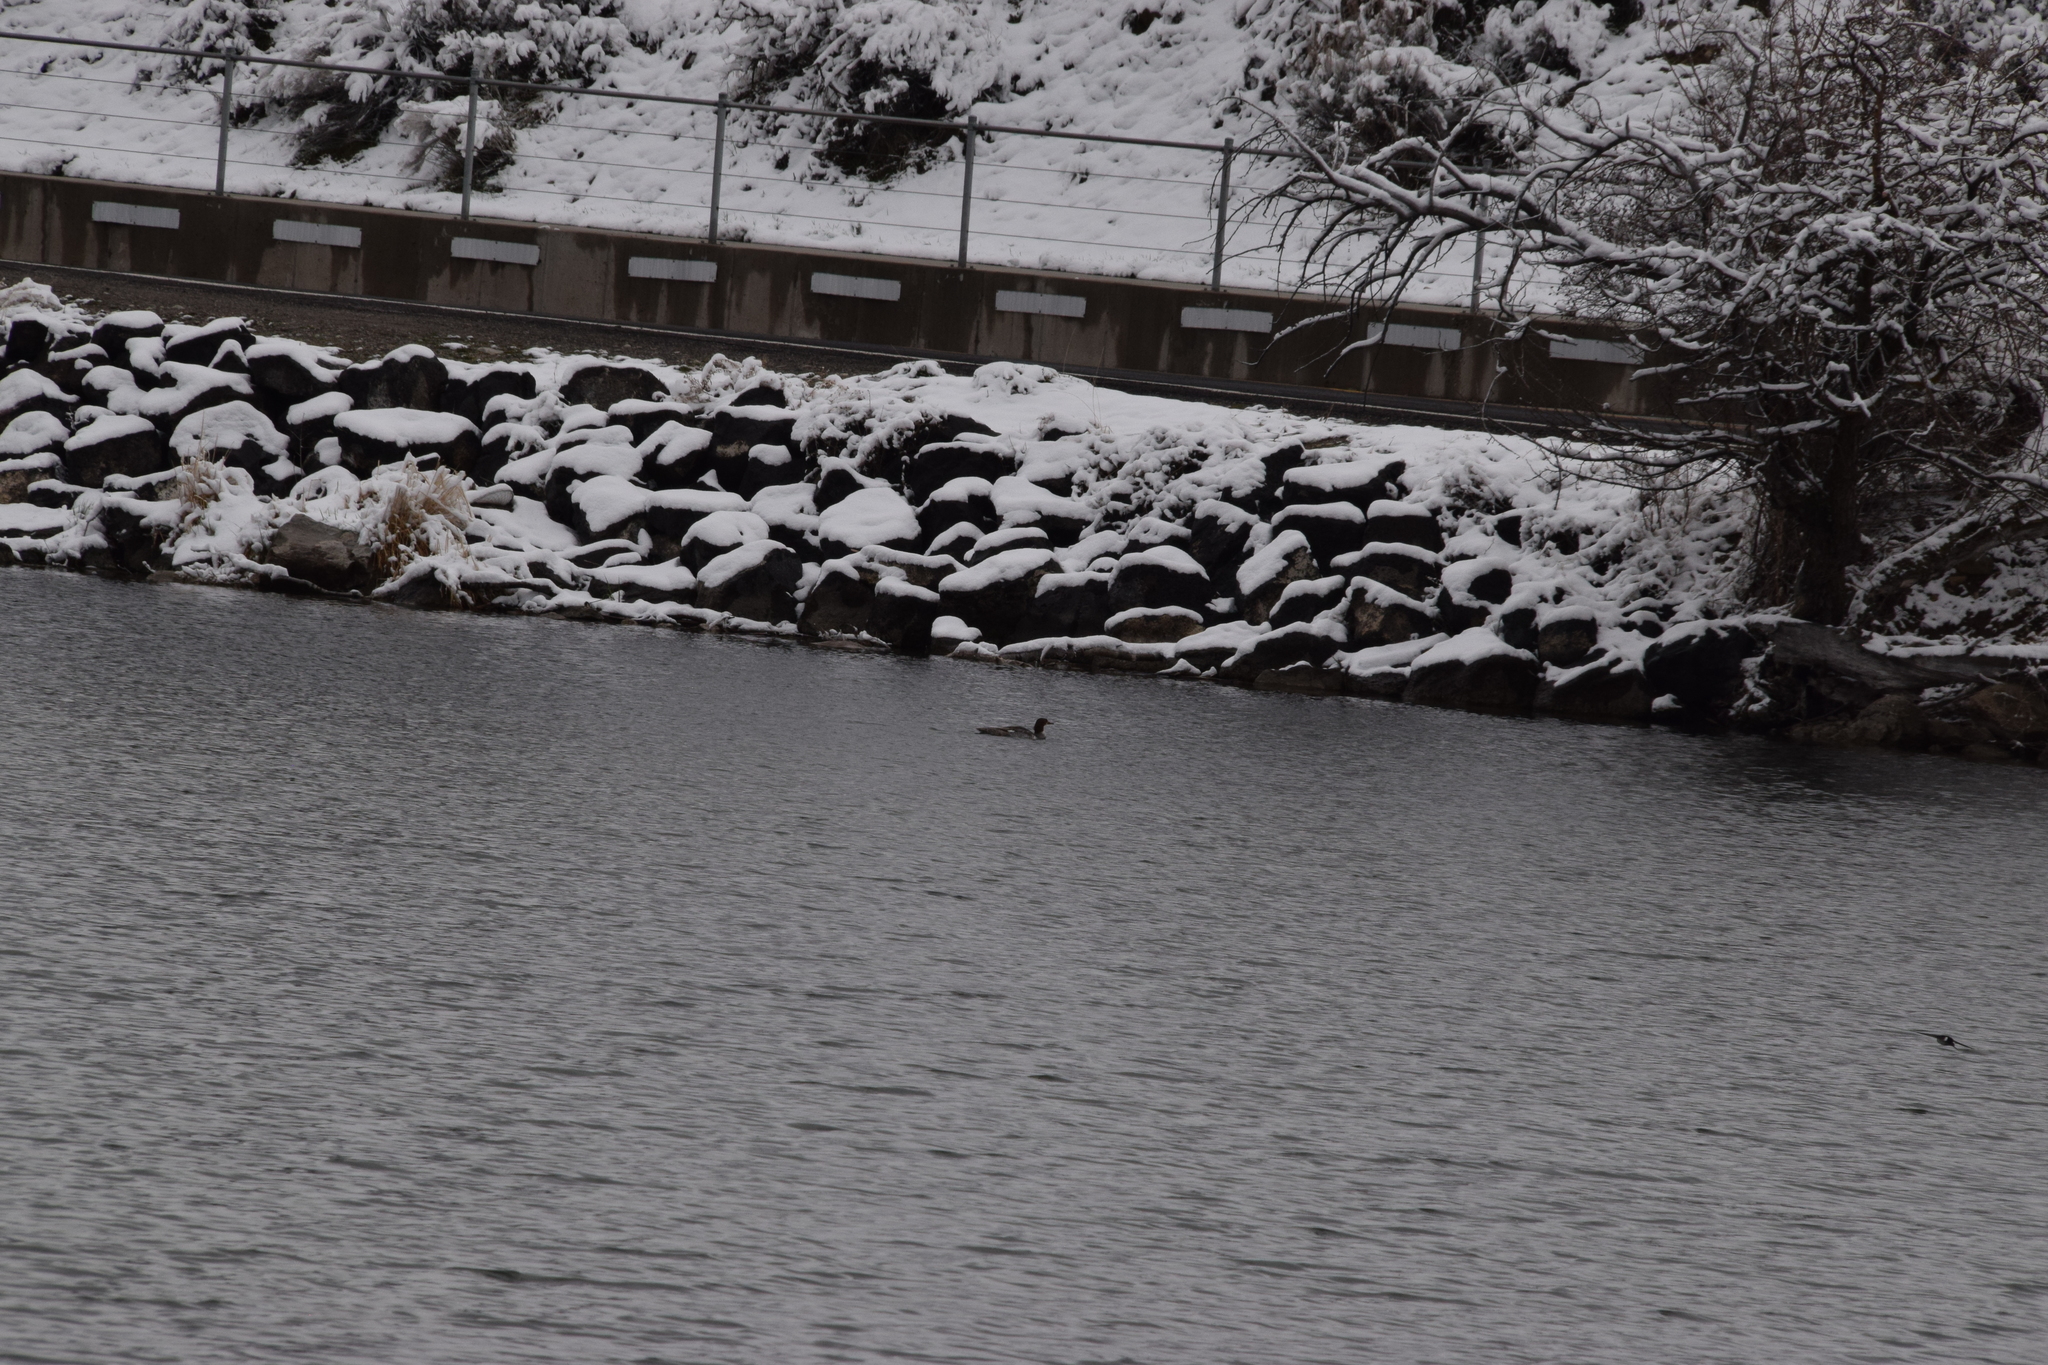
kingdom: Animalia
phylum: Chordata
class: Aves
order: Anseriformes
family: Anatidae
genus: Mergus
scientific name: Mergus merganser
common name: Common merganser
